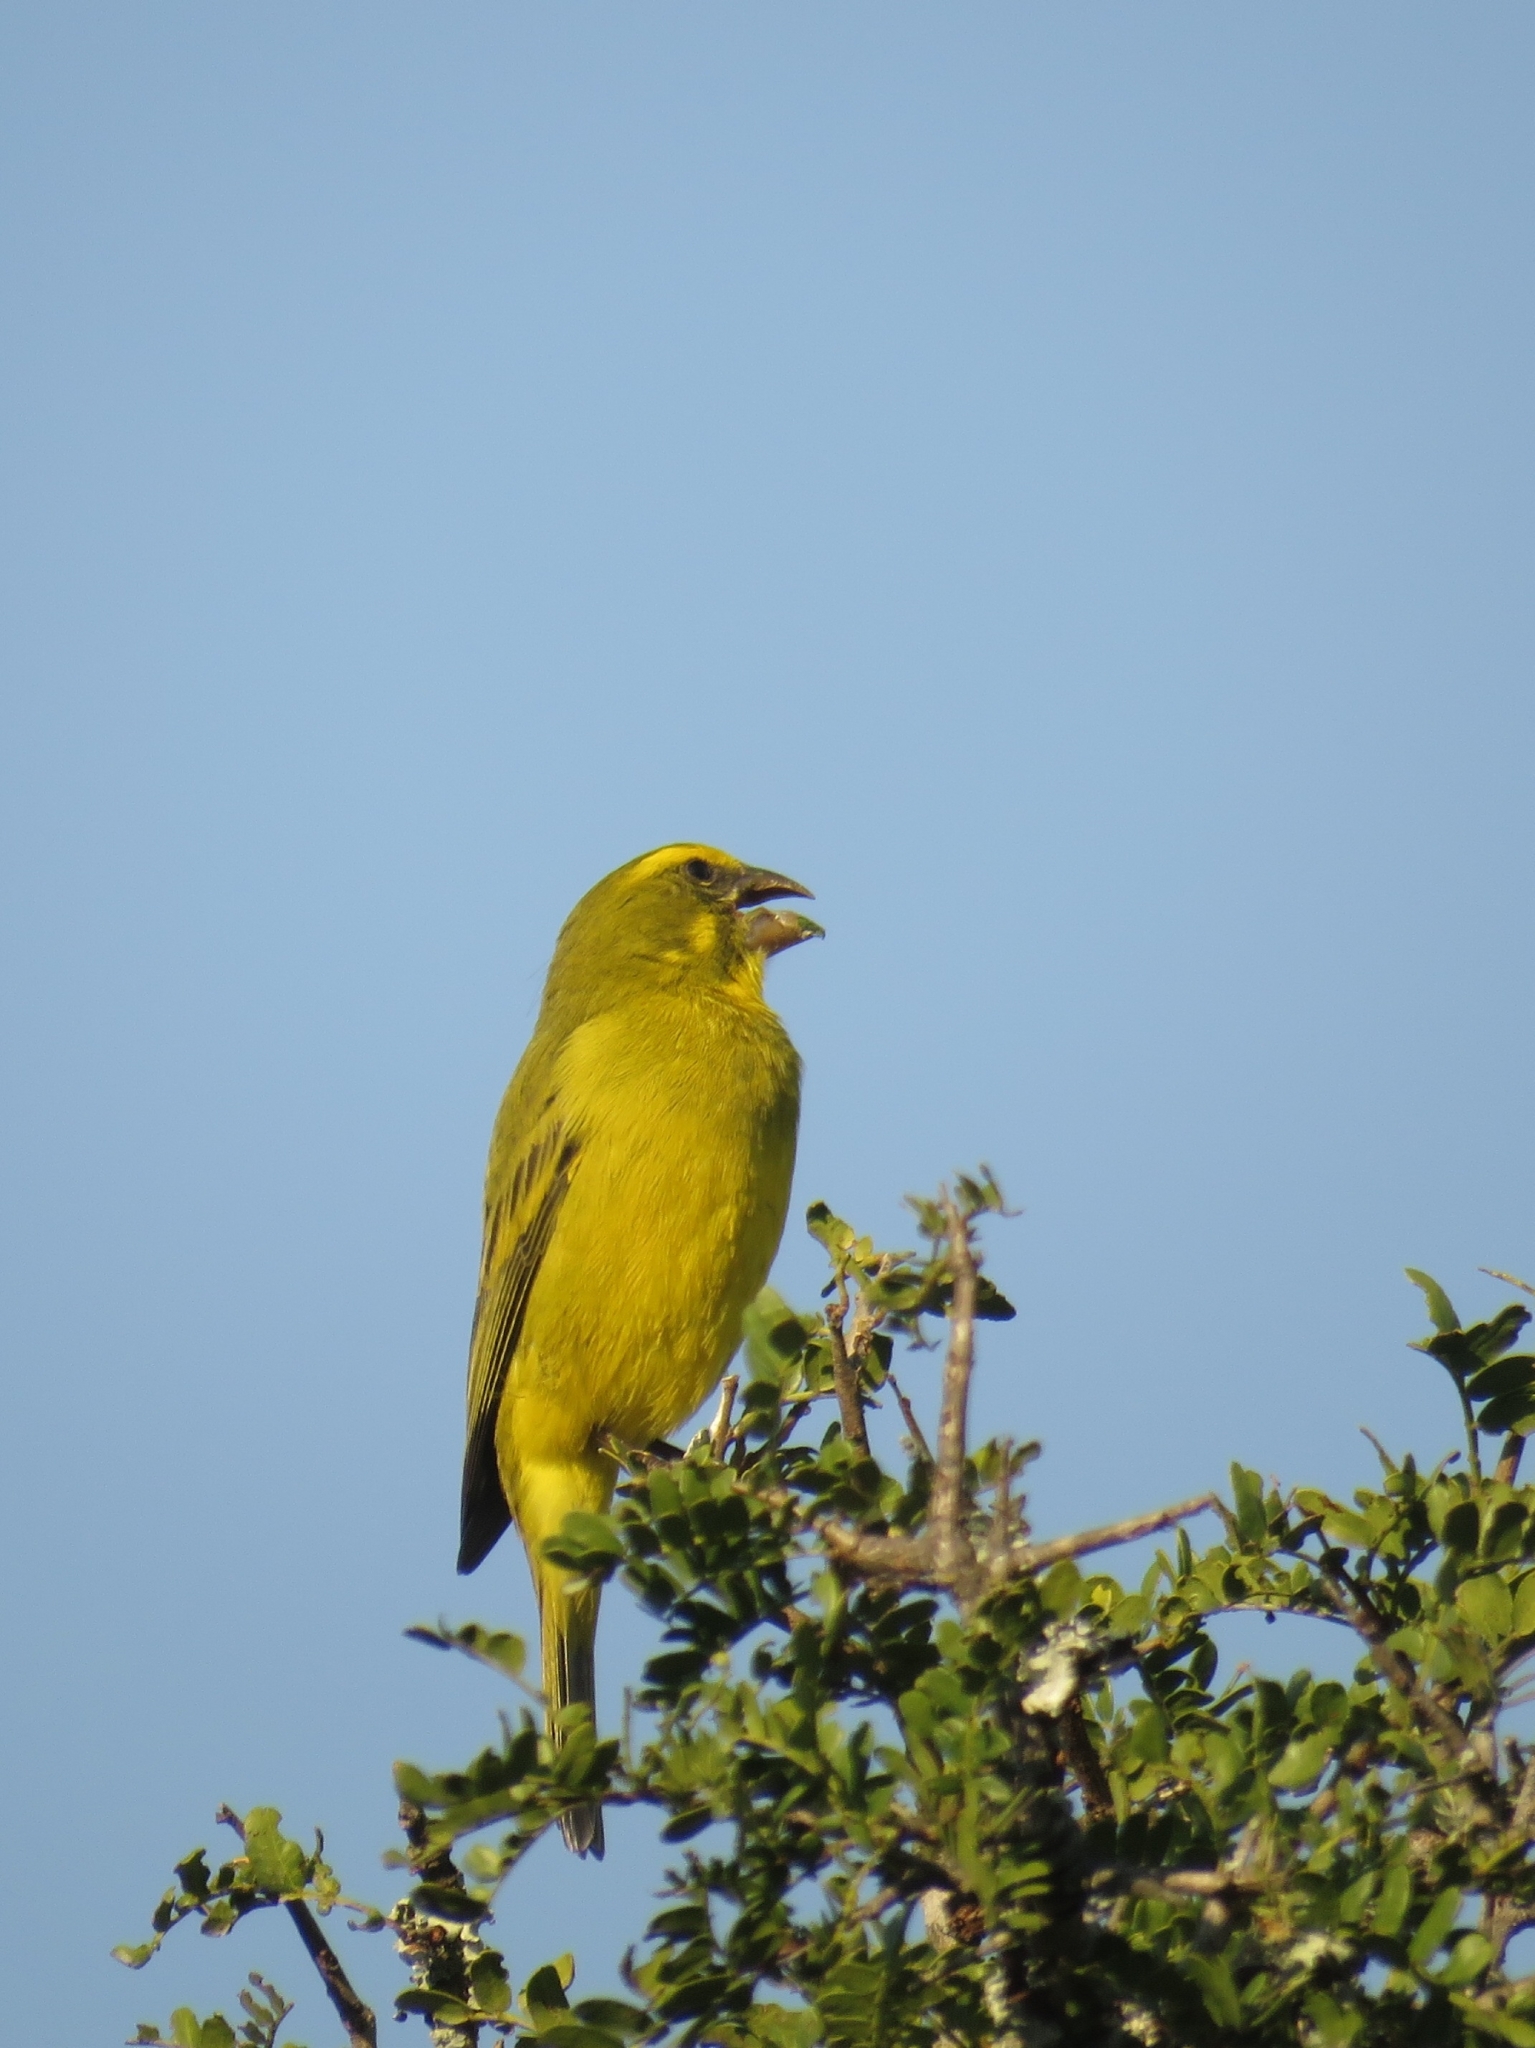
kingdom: Animalia
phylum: Chordata
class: Aves
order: Passeriformes
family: Fringillidae
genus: Crithagra
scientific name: Crithagra sulphurata
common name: Brimstone canary
